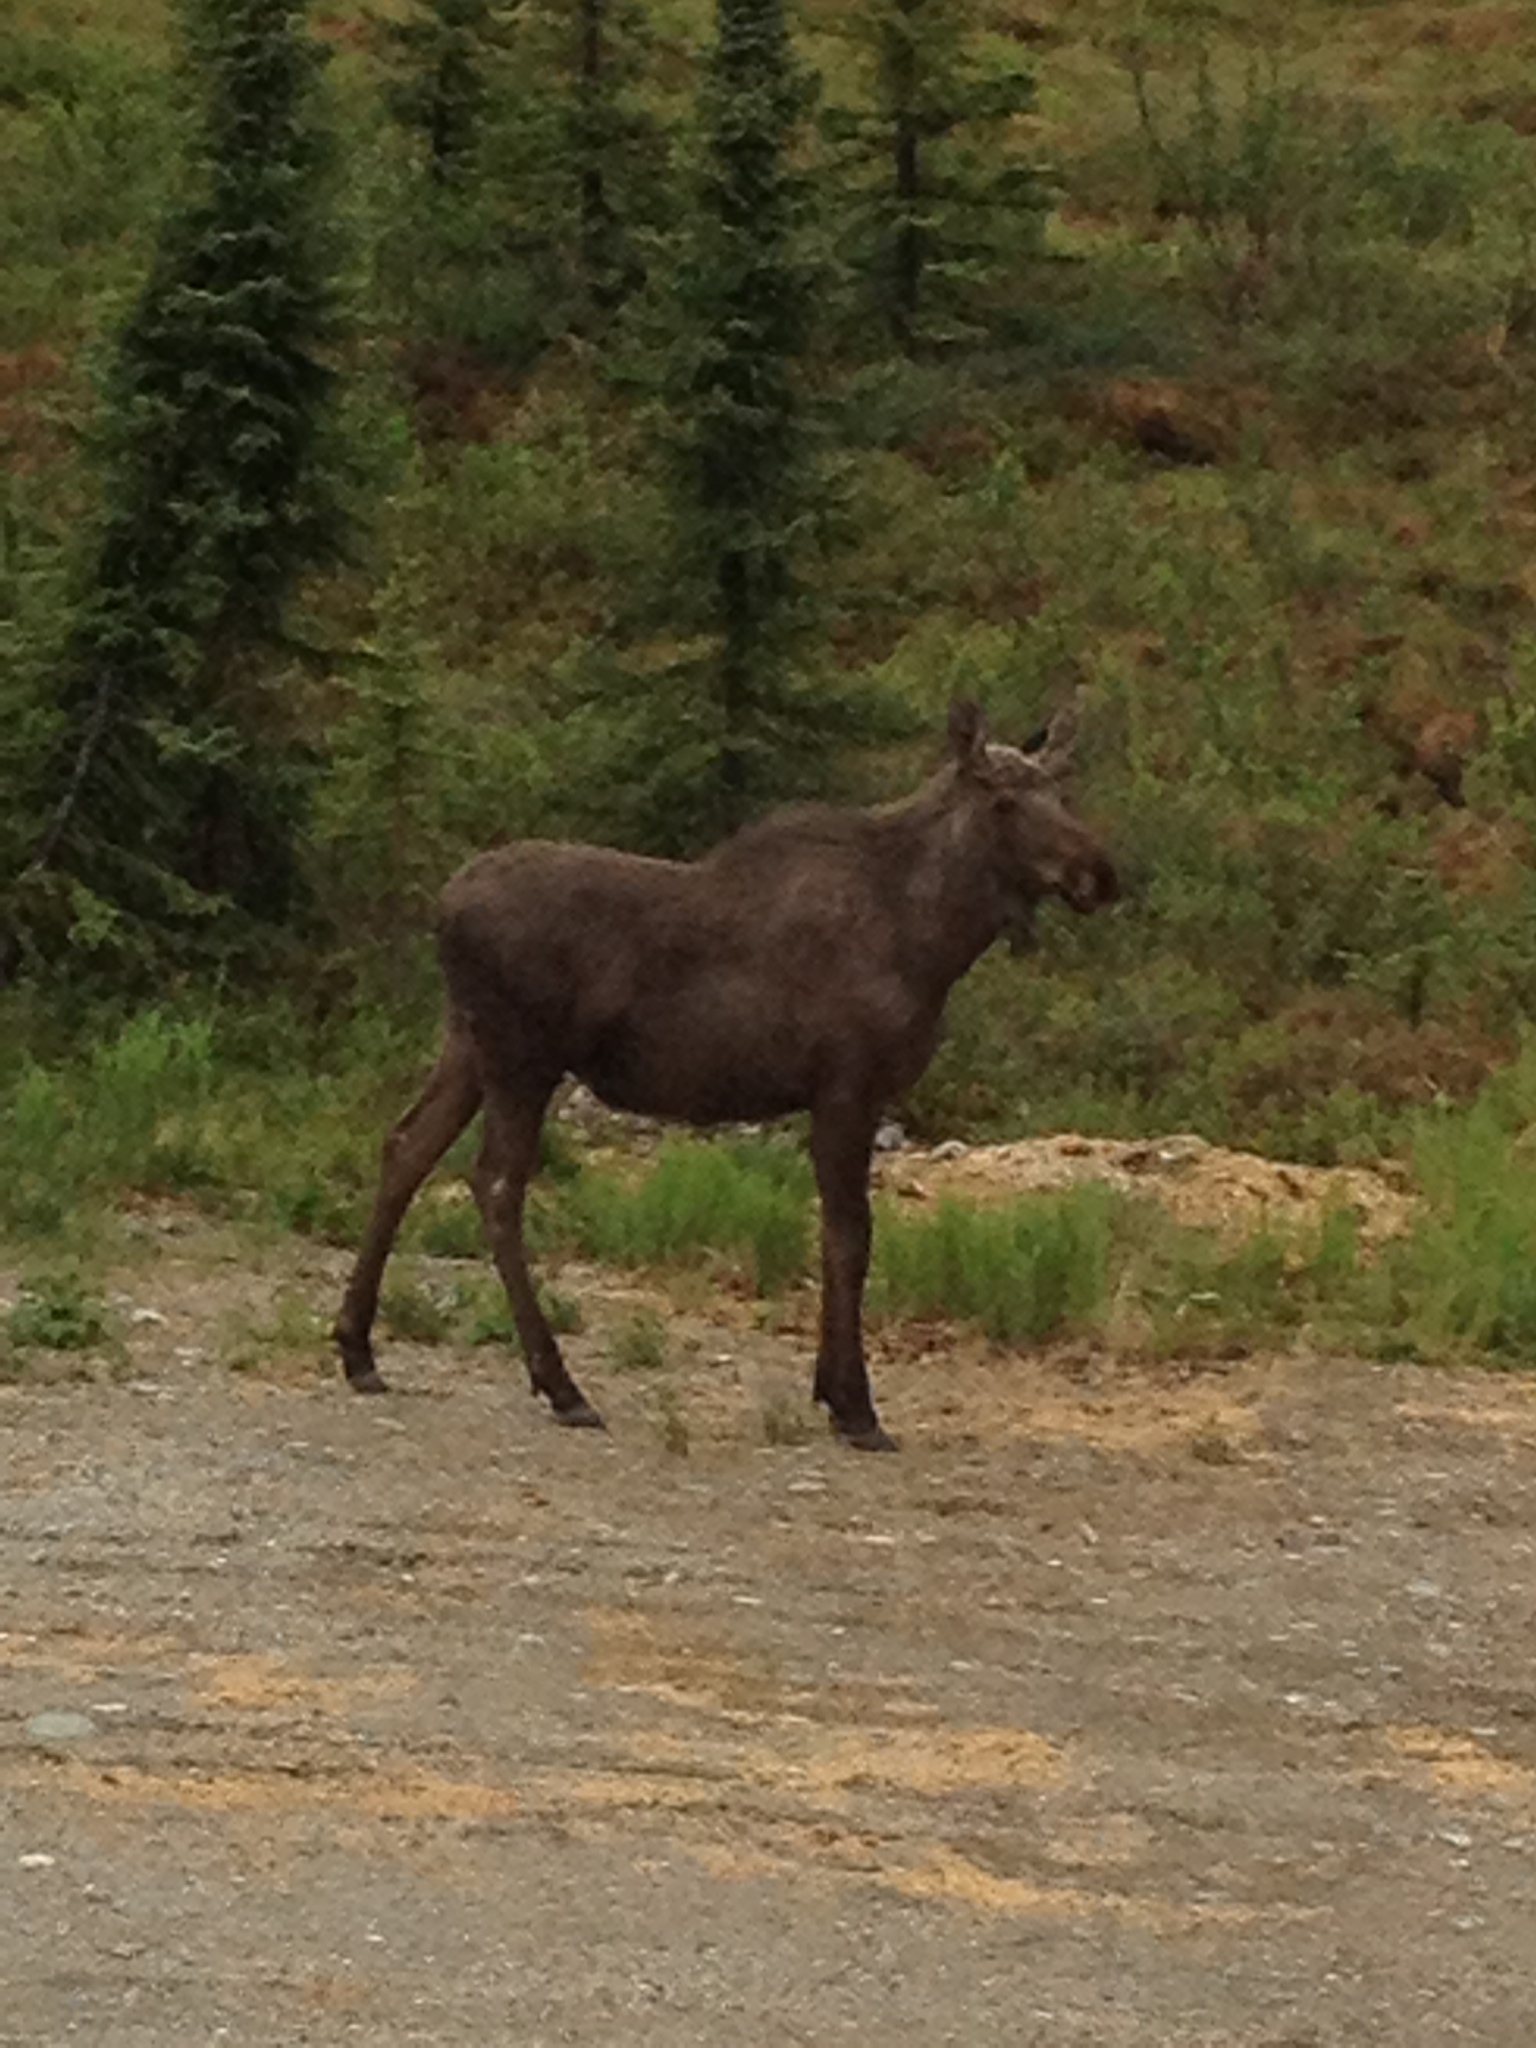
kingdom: Animalia
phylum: Chordata
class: Mammalia
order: Artiodactyla
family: Cervidae
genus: Alces
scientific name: Alces alces
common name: Moose
